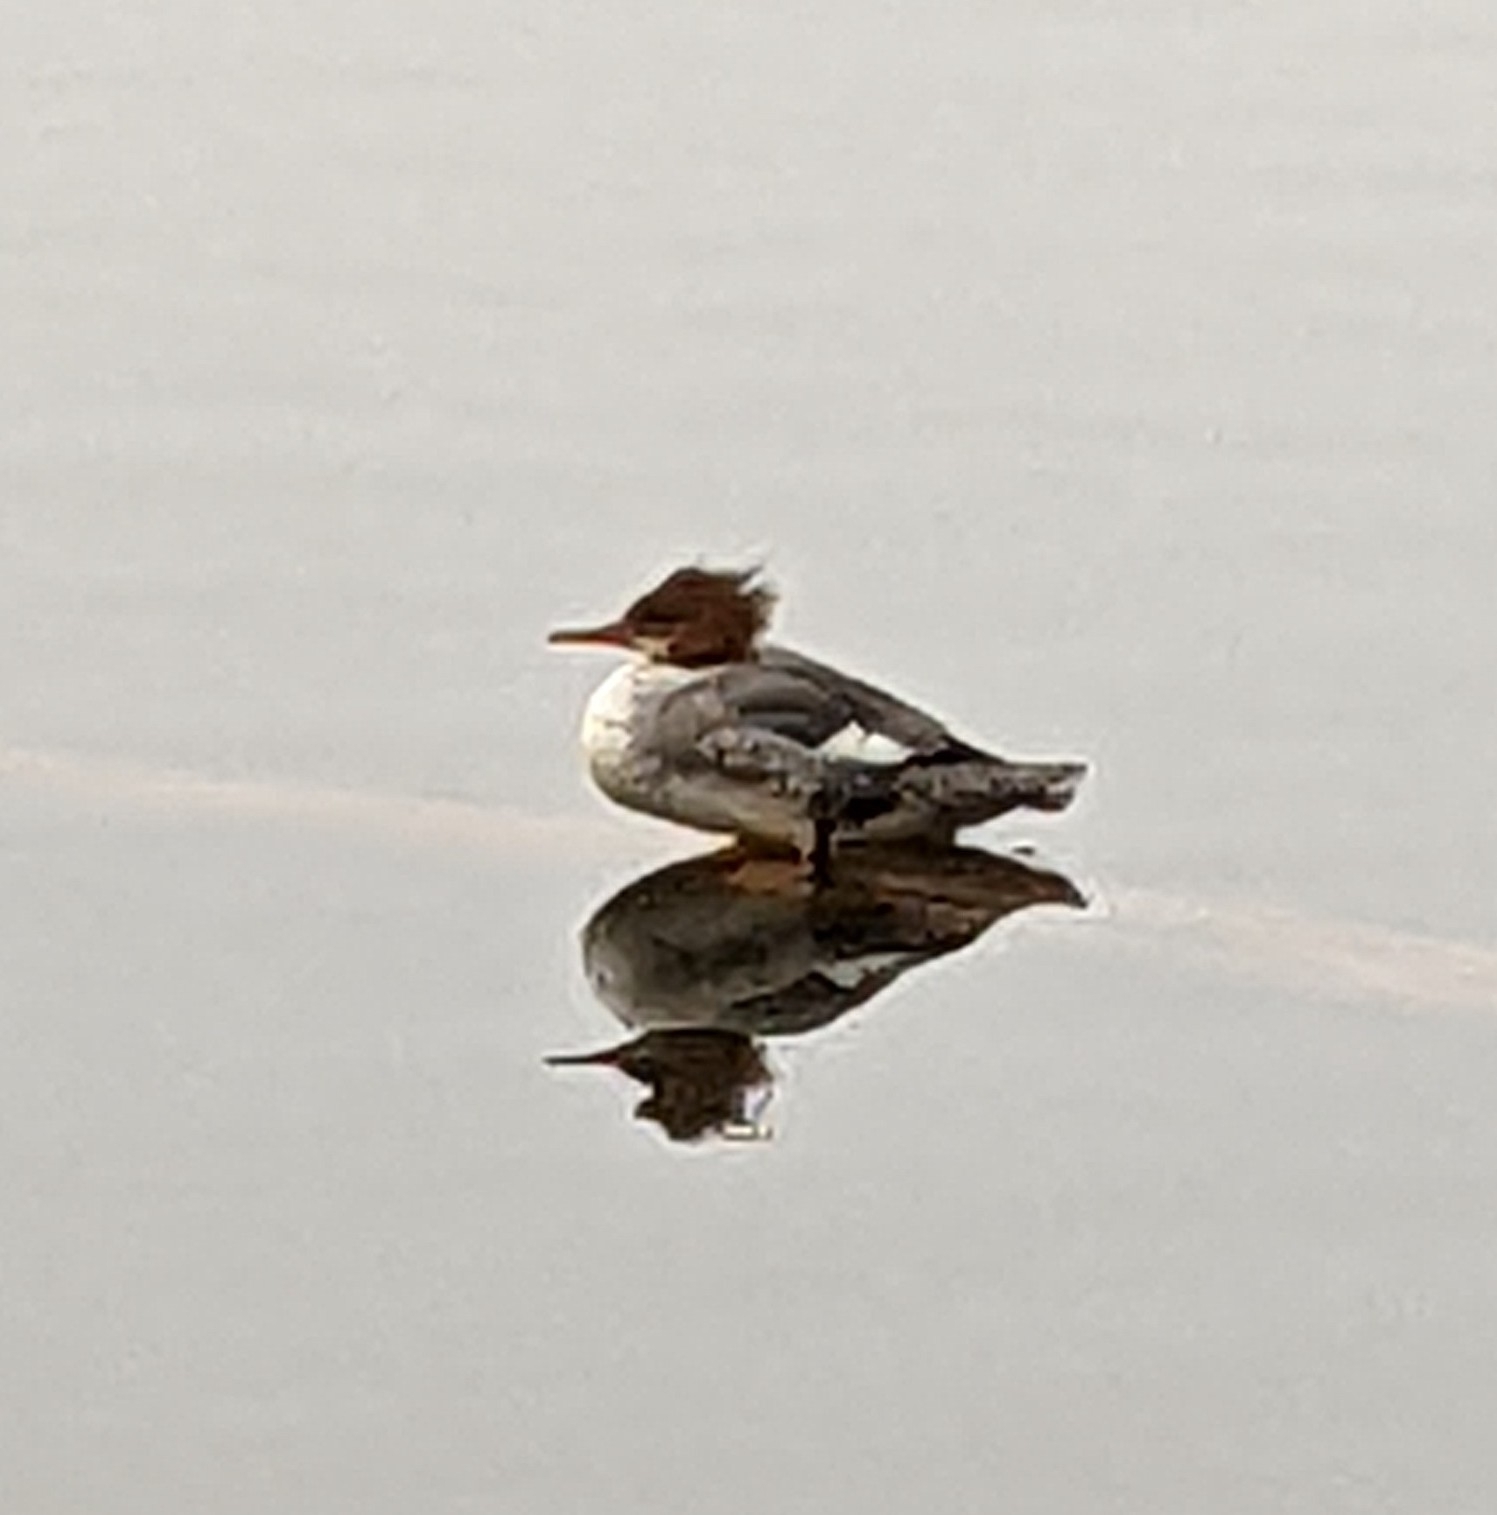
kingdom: Animalia
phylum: Chordata
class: Aves
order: Anseriformes
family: Anatidae
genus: Mergus
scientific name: Mergus merganser
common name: Common merganser
